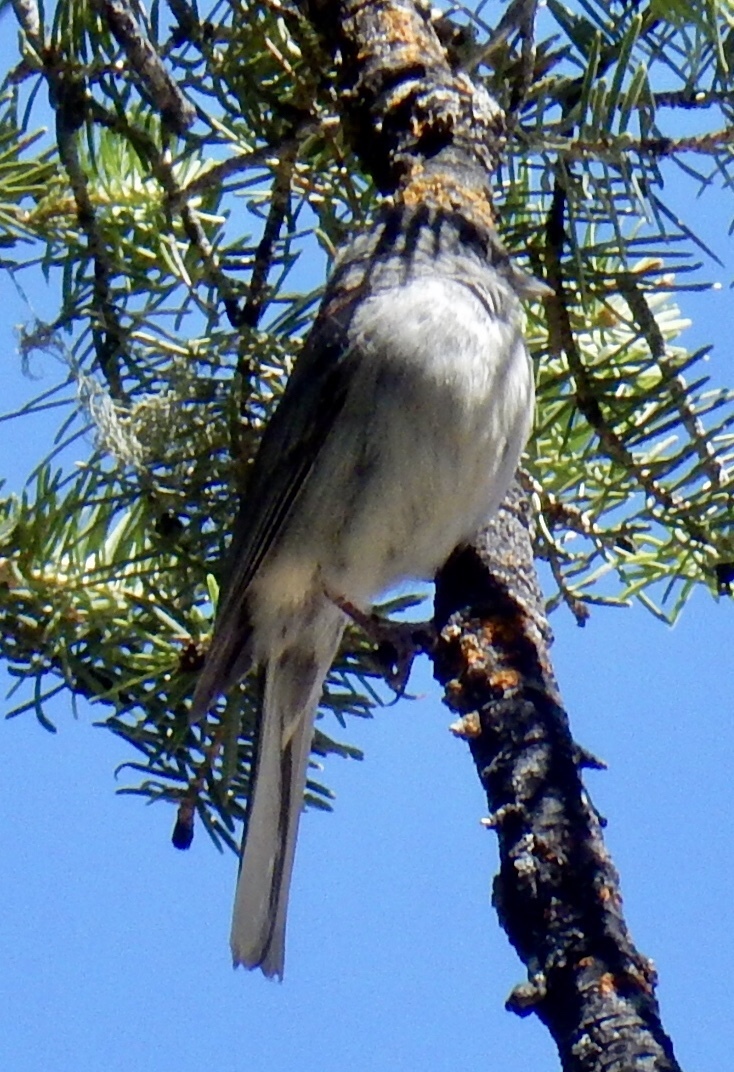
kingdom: Animalia
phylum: Chordata
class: Aves
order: Passeriformes
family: Passerellidae
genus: Junco
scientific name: Junco hyemalis
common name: Dark-eyed junco
